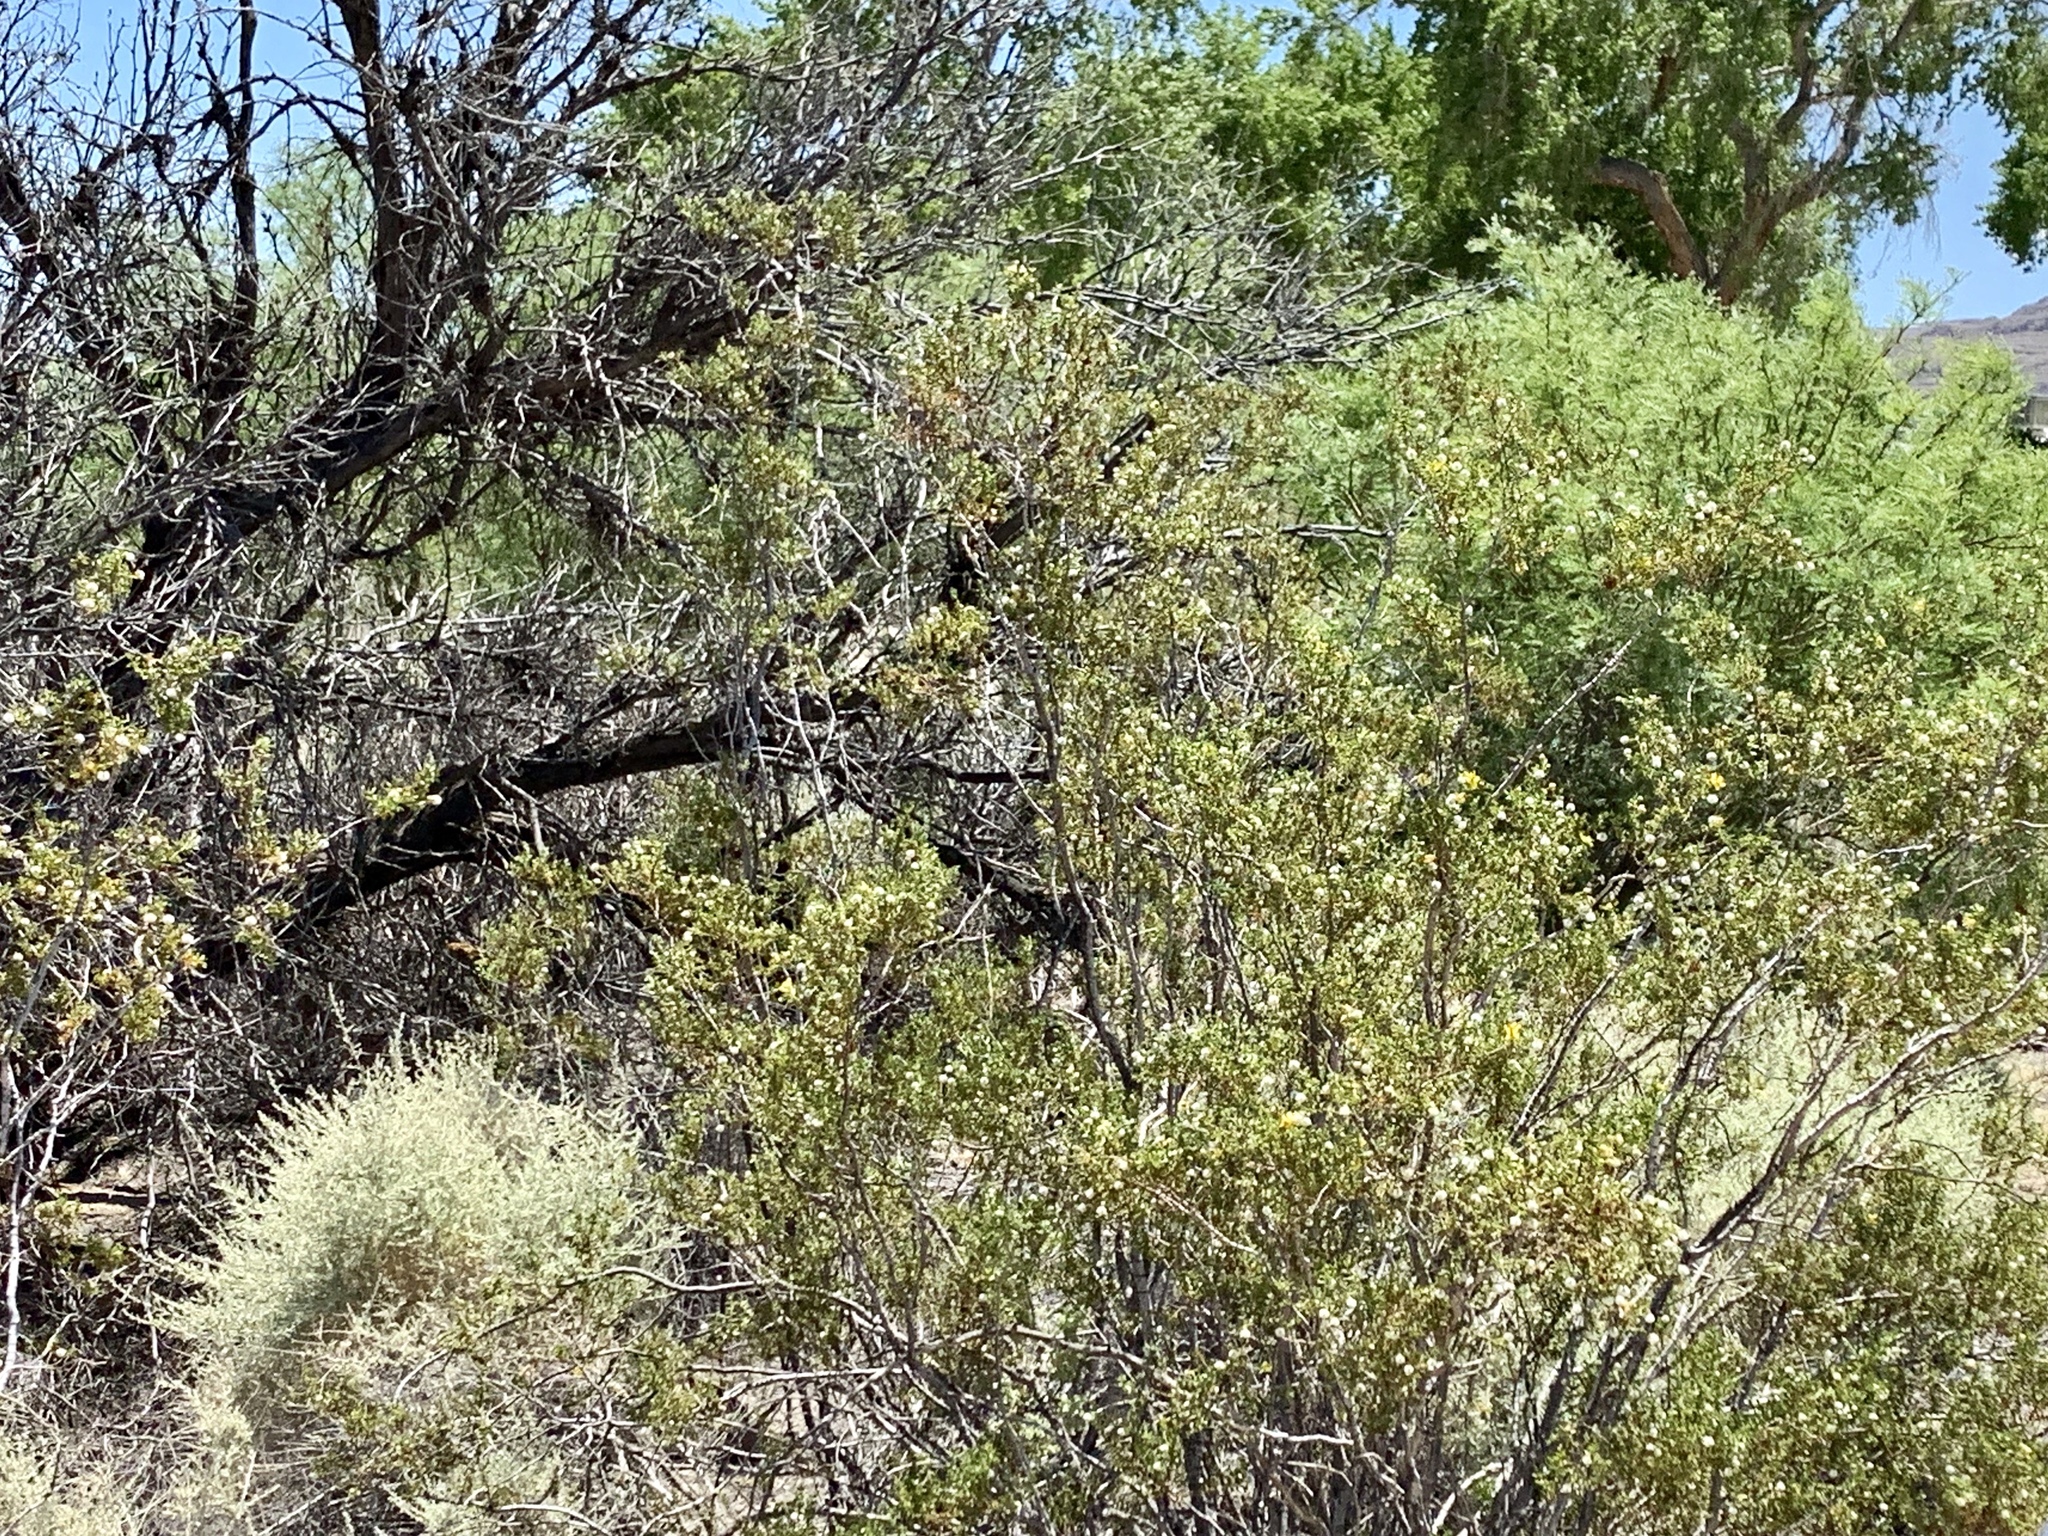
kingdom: Plantae
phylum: Tracheophyta
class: Magnoliopsida
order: Zygophyllales
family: Zygophyllaceae
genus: Larrea
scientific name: Larrea tridentata
